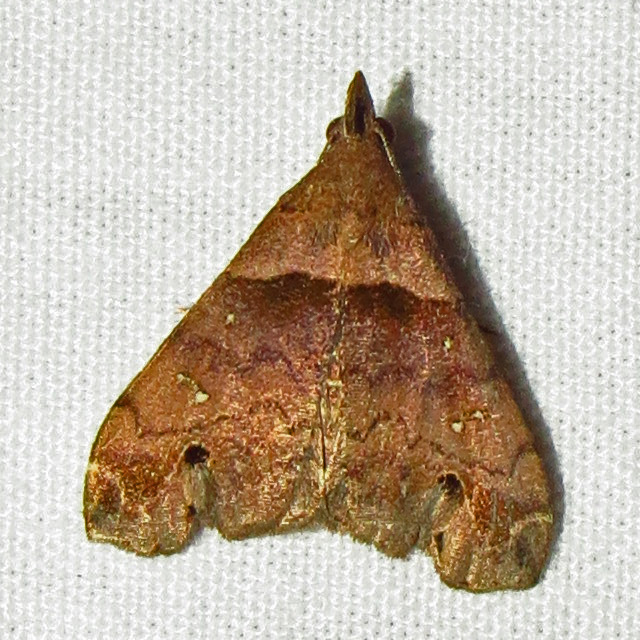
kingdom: Animalia
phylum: Arthropoda
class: Insecta
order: Lepidoptera
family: Erebidae
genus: Lascoria
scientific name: Lascoria ambigualis
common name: Ambiguous moth
